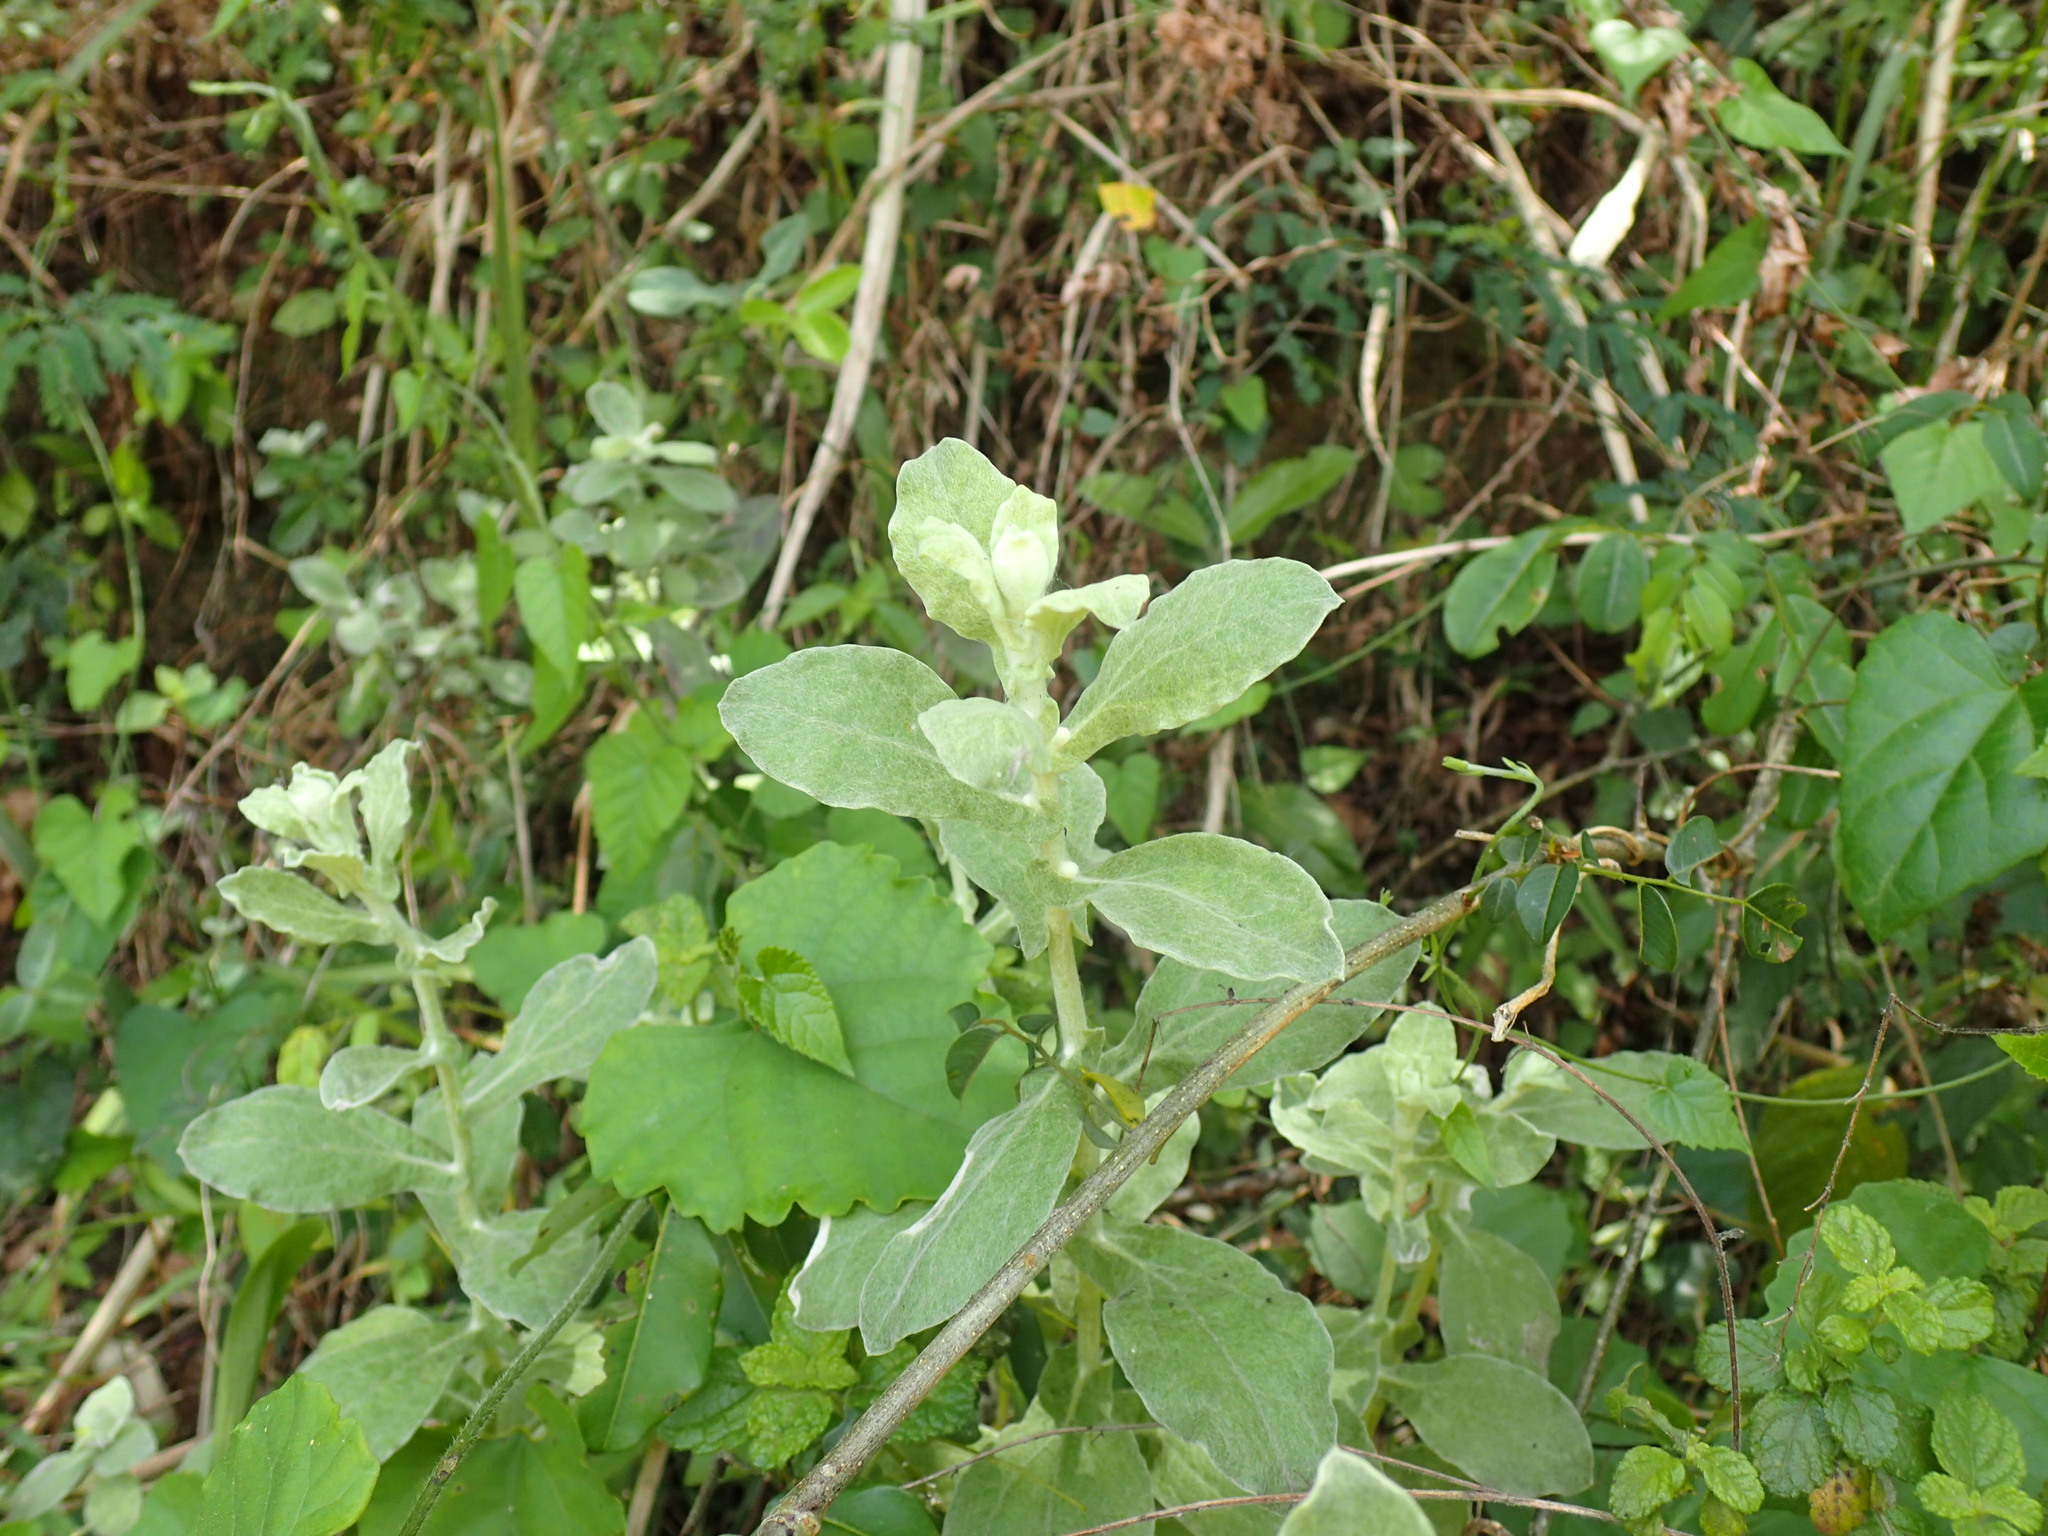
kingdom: Plantae
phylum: Tracheophyta
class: Magnoliopsida
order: Asterales
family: Asteraceae
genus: Helichrysum
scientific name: Helichrysum panduratum
